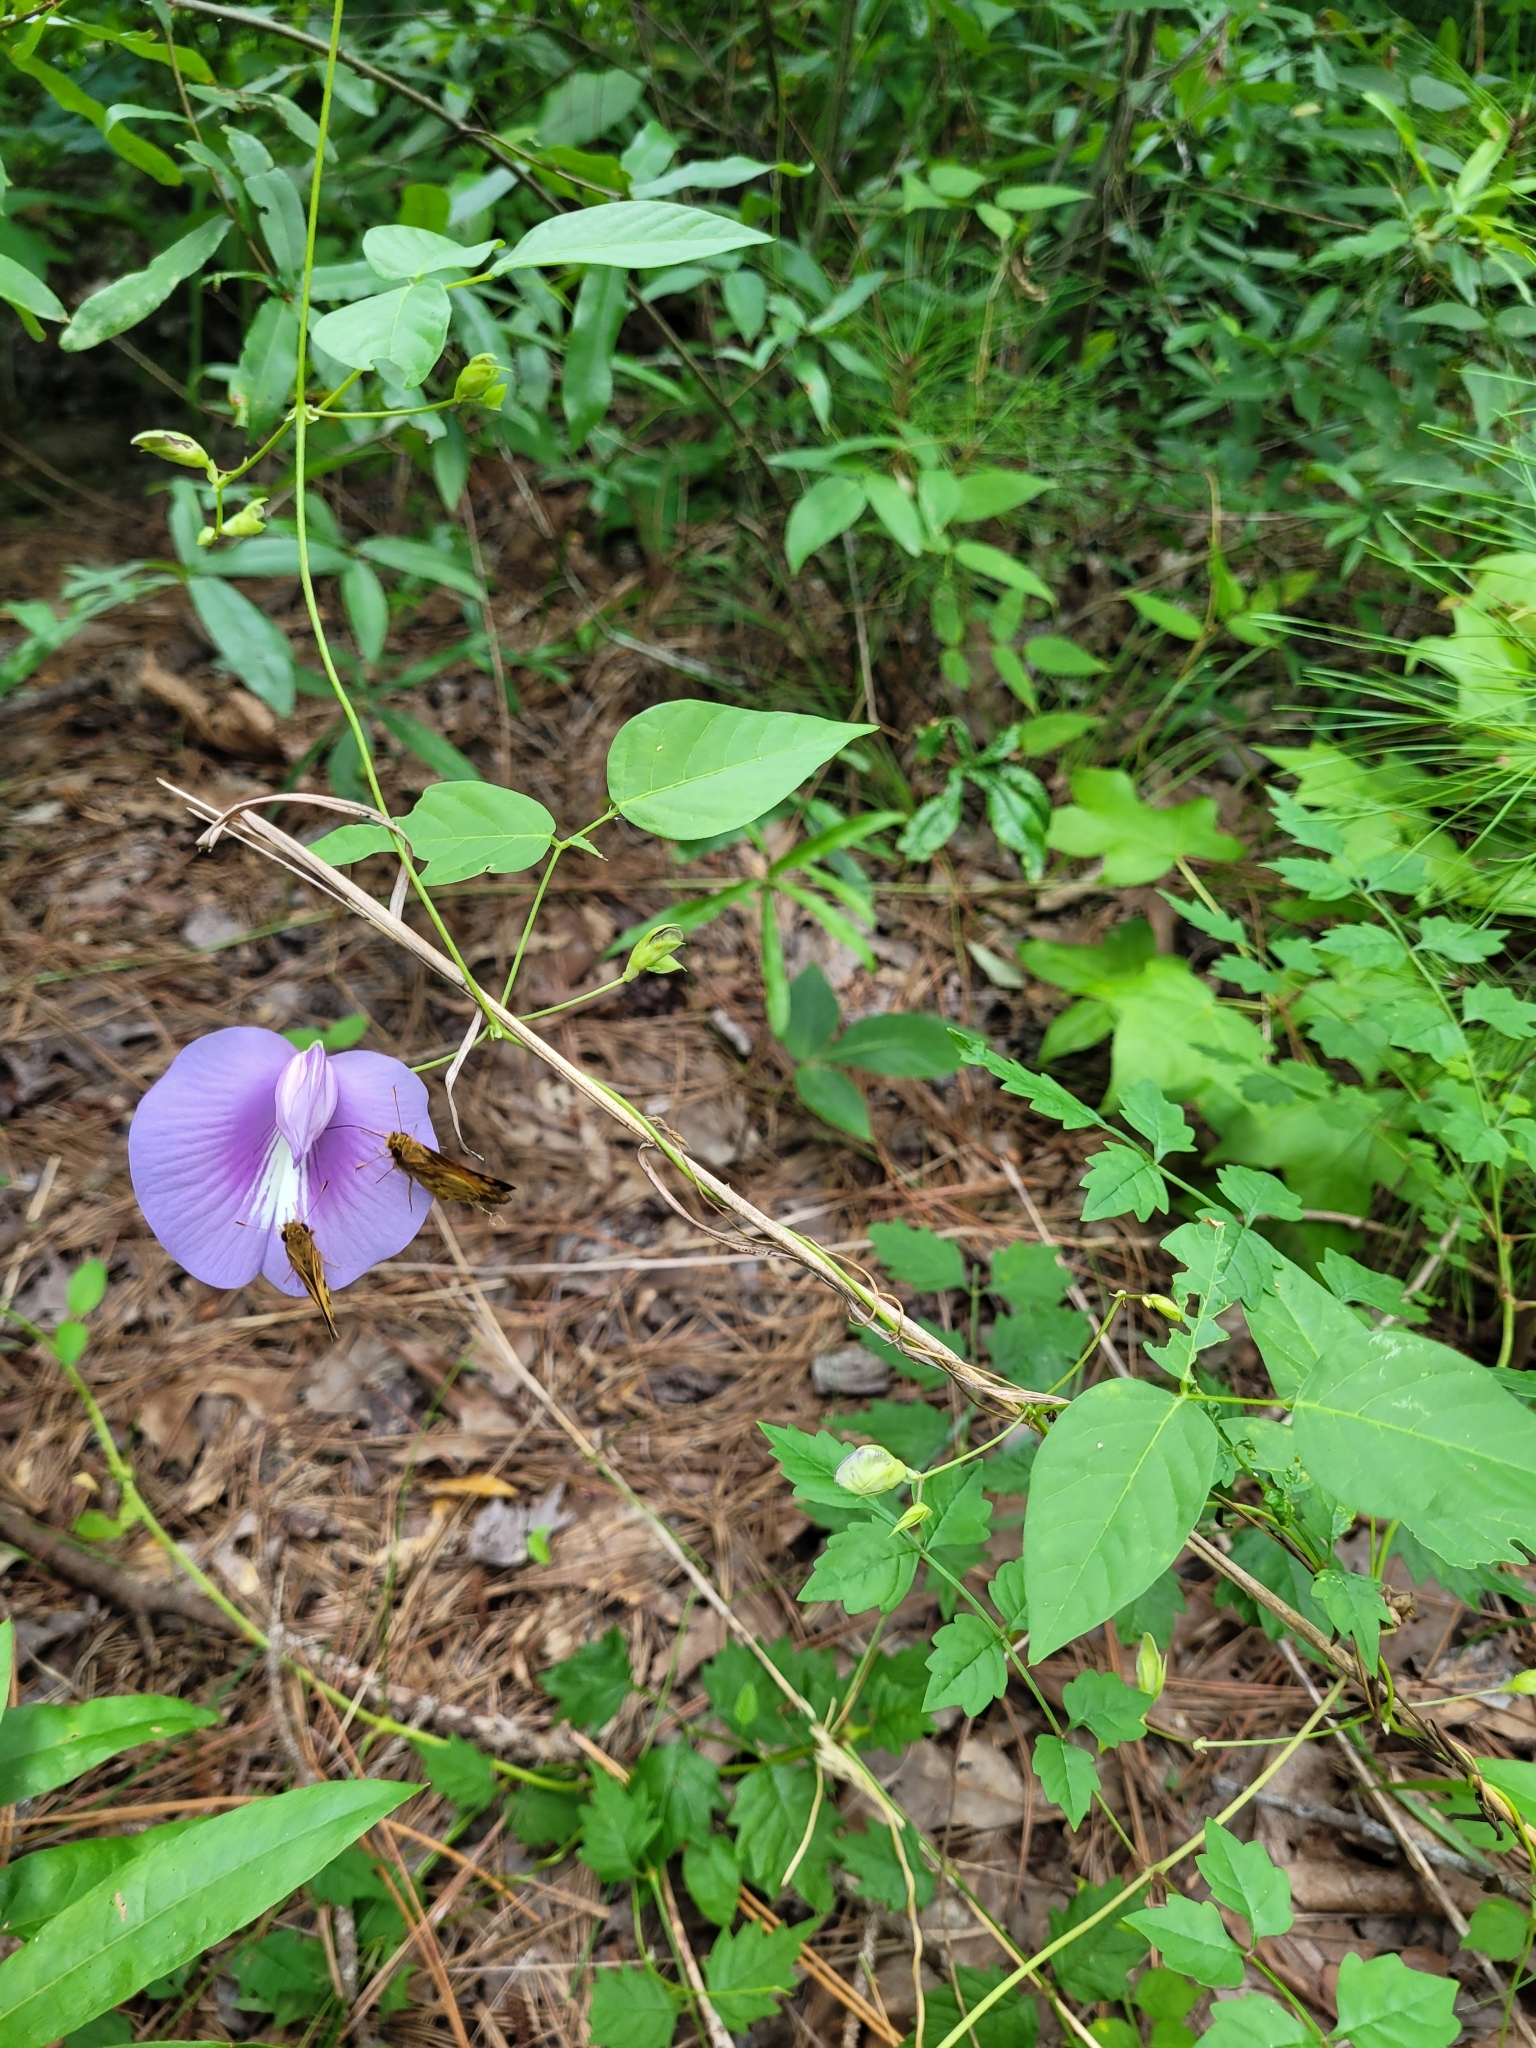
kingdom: Plantae
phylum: Tracheophyta
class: Magnoliopsida
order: Fabales
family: Fabaceae
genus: Centrosema
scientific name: Centrosema virginianum
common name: Butterfly-pea
